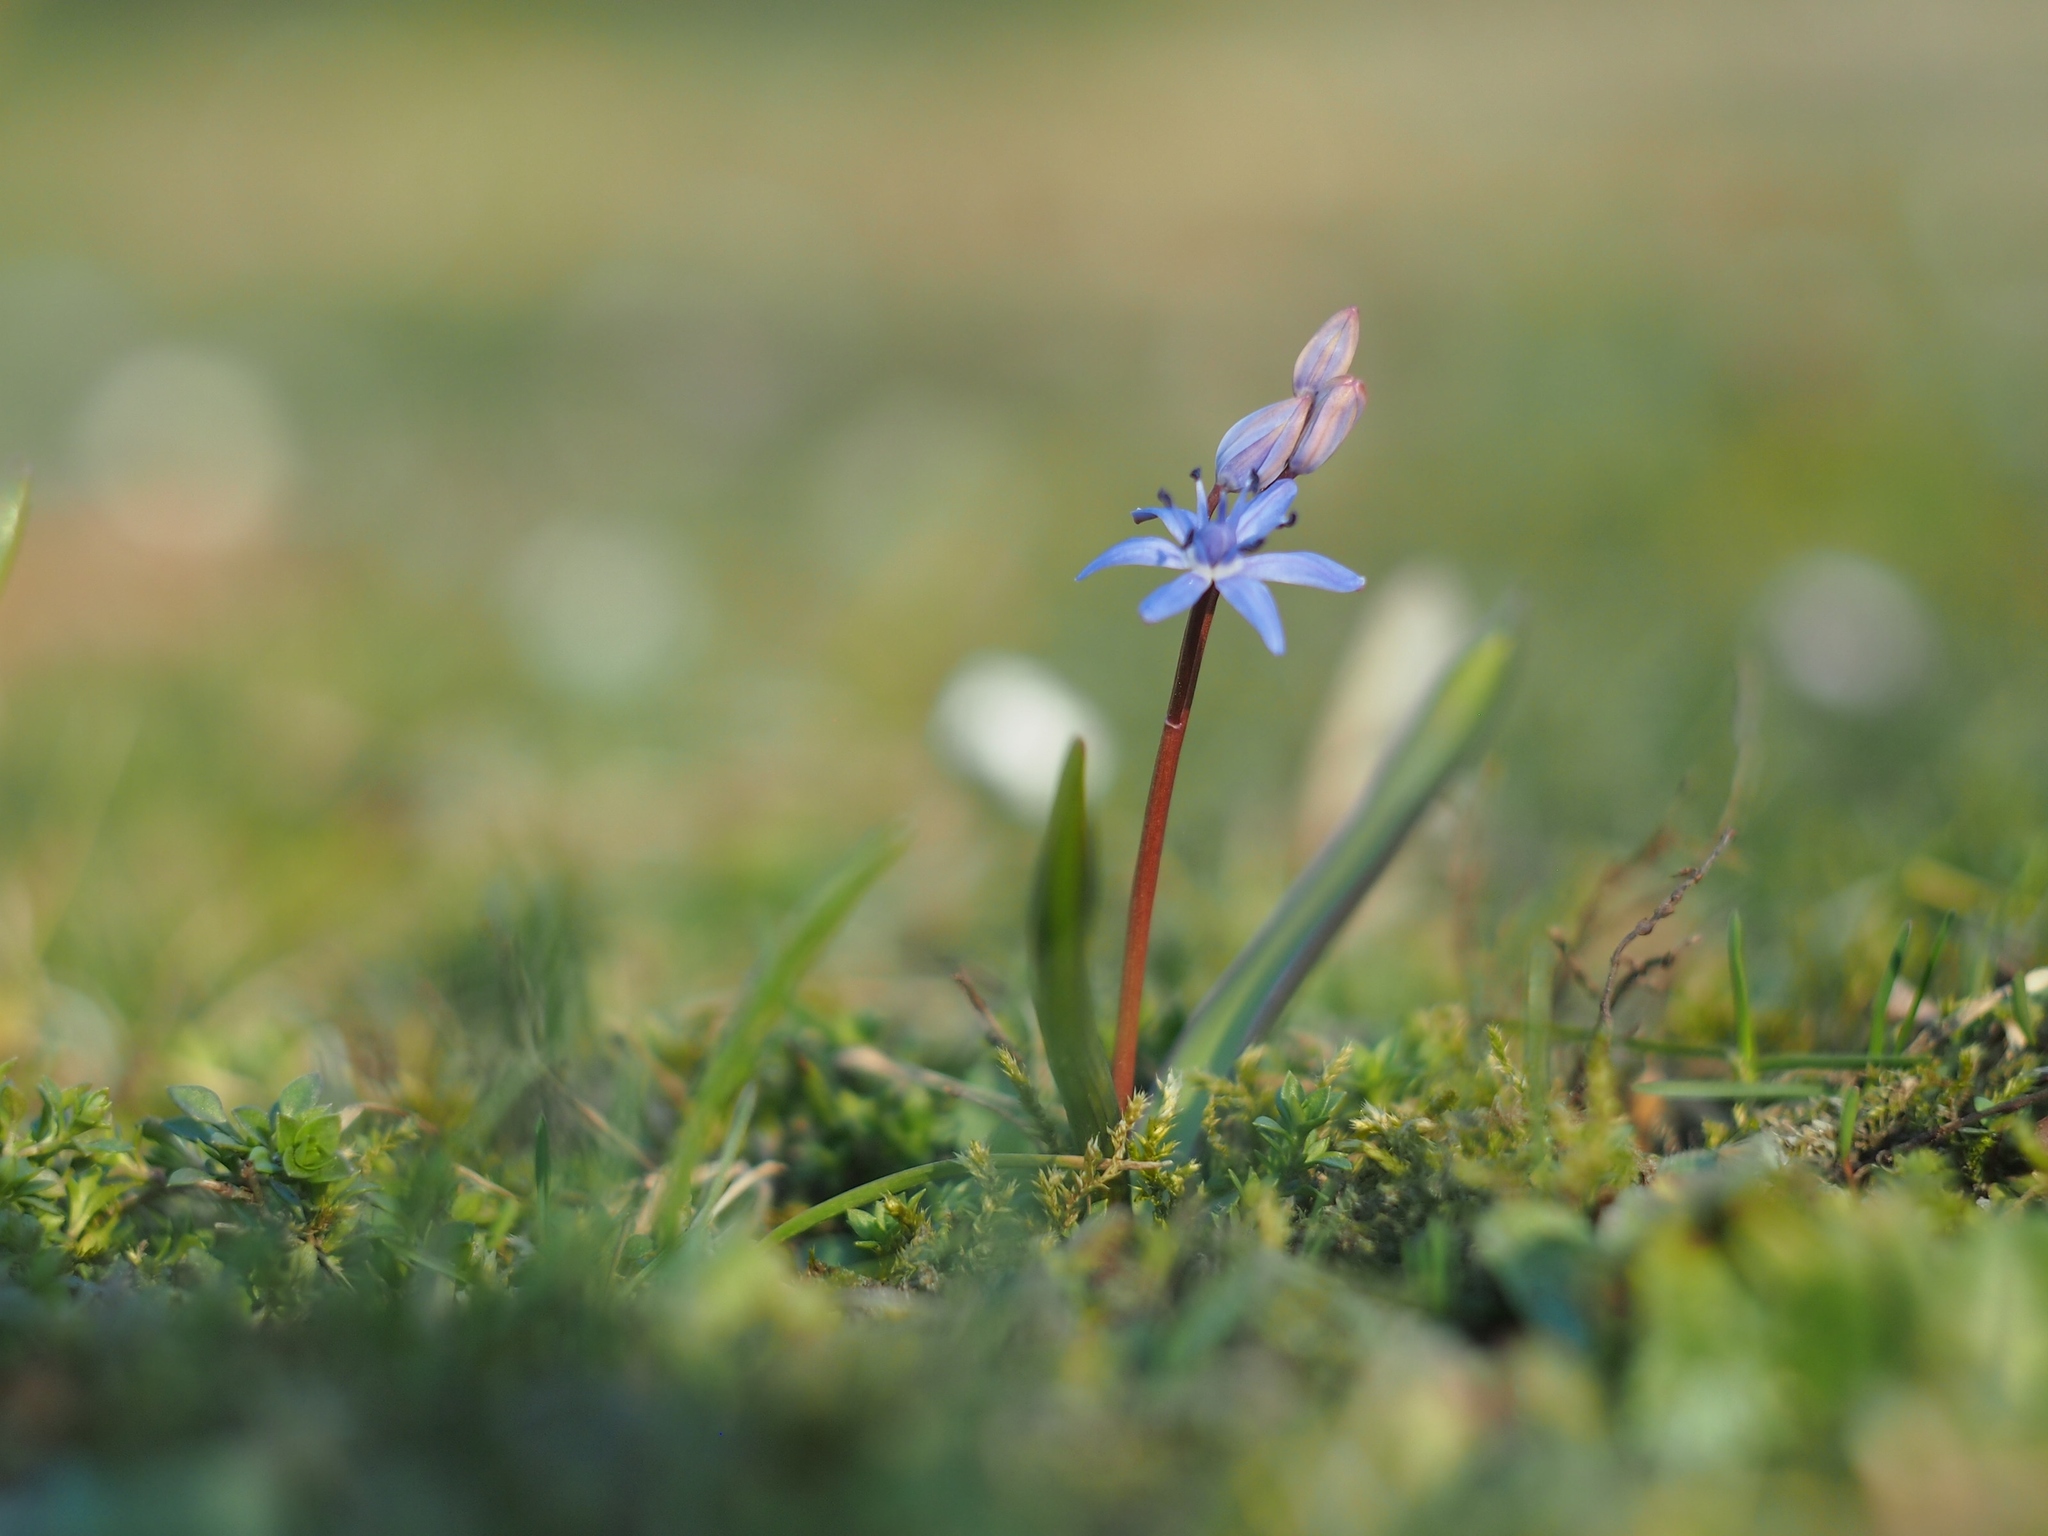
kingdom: Plantae
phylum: Tracheophyta
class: Liliopsida
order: Asparagales
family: Asparagaceae
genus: Scilla
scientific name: Scilla vindobonensis
